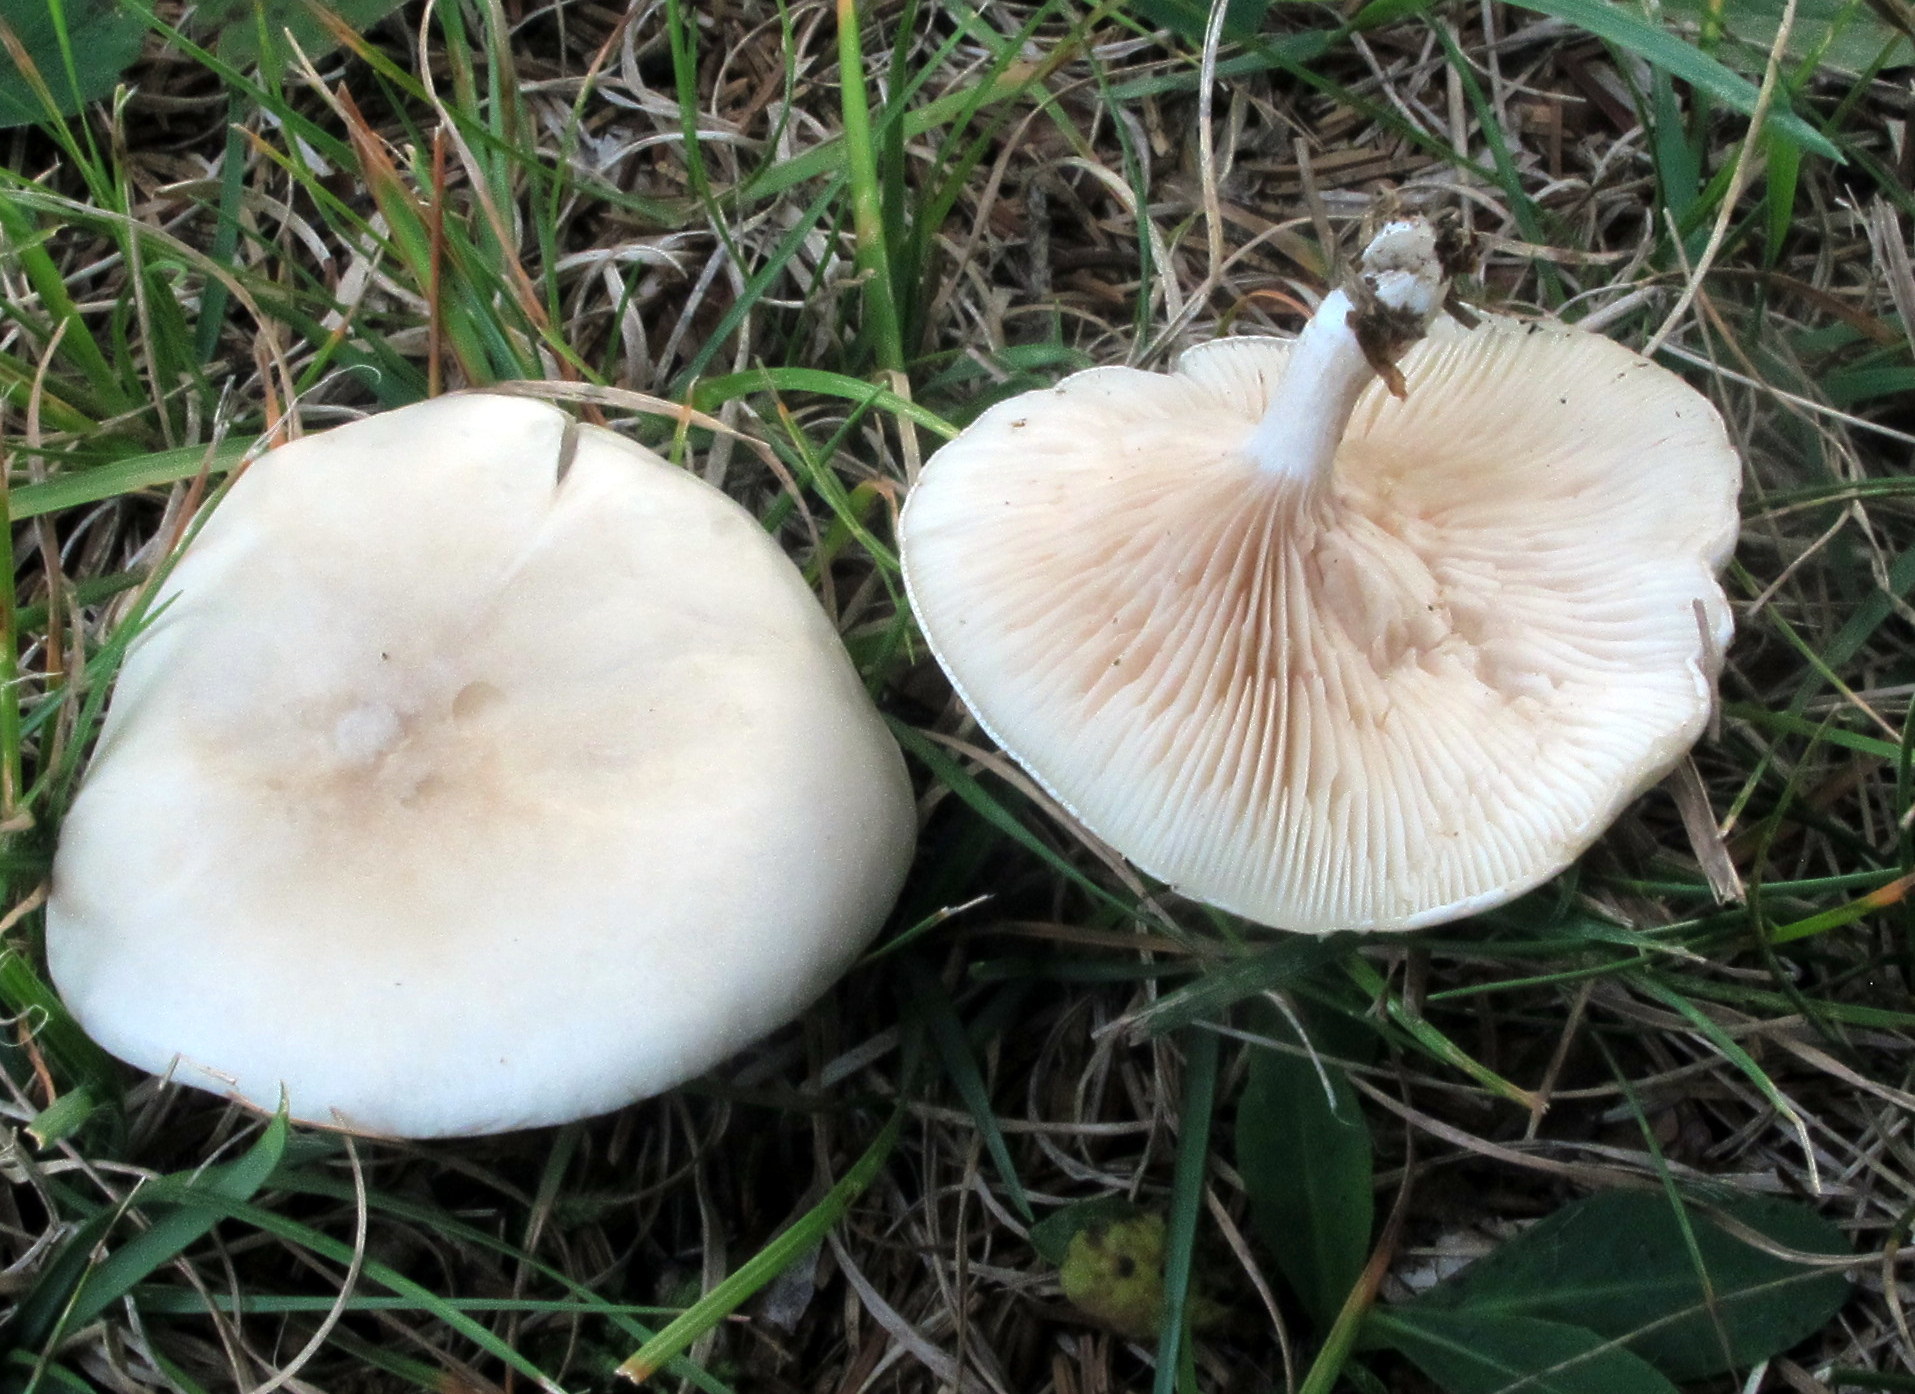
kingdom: Fungi
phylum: Basidiomycota
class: Agaricomycetes
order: Agaricales
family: Entolomataceae
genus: Clitopilus
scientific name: Clitopilus prunulus
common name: The miller
